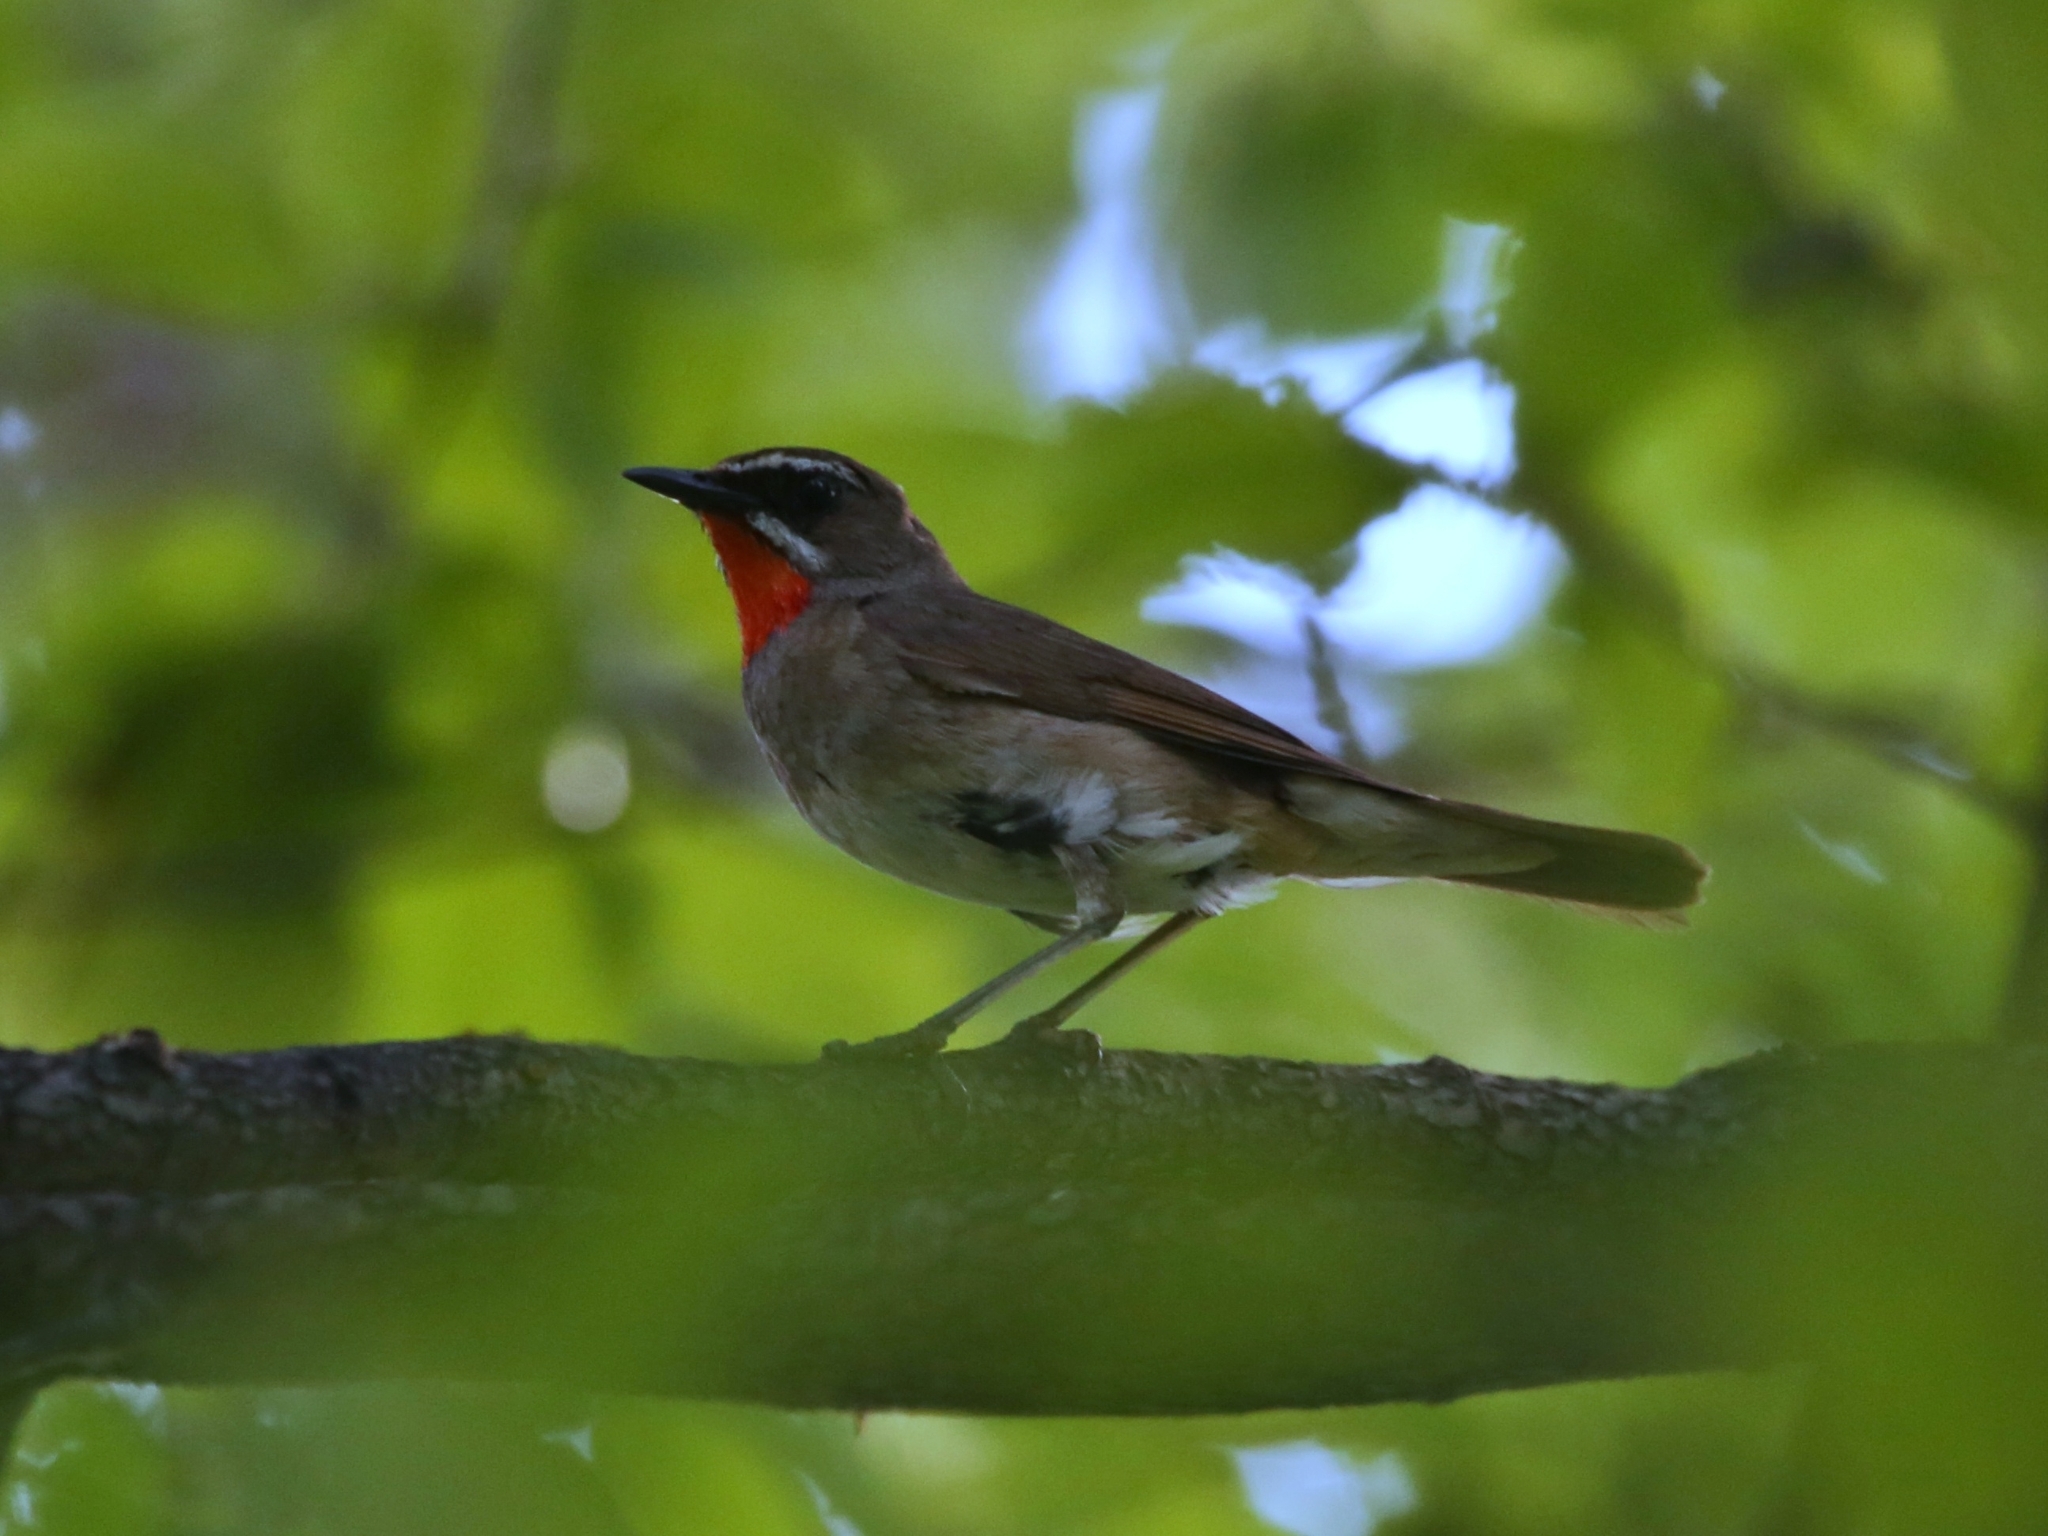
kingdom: Animalia
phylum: Chordata
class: Aves
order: Passeriformes
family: Muscicapidae
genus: Luscinia
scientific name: Luscinia calliope
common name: Siberian rubythroat
